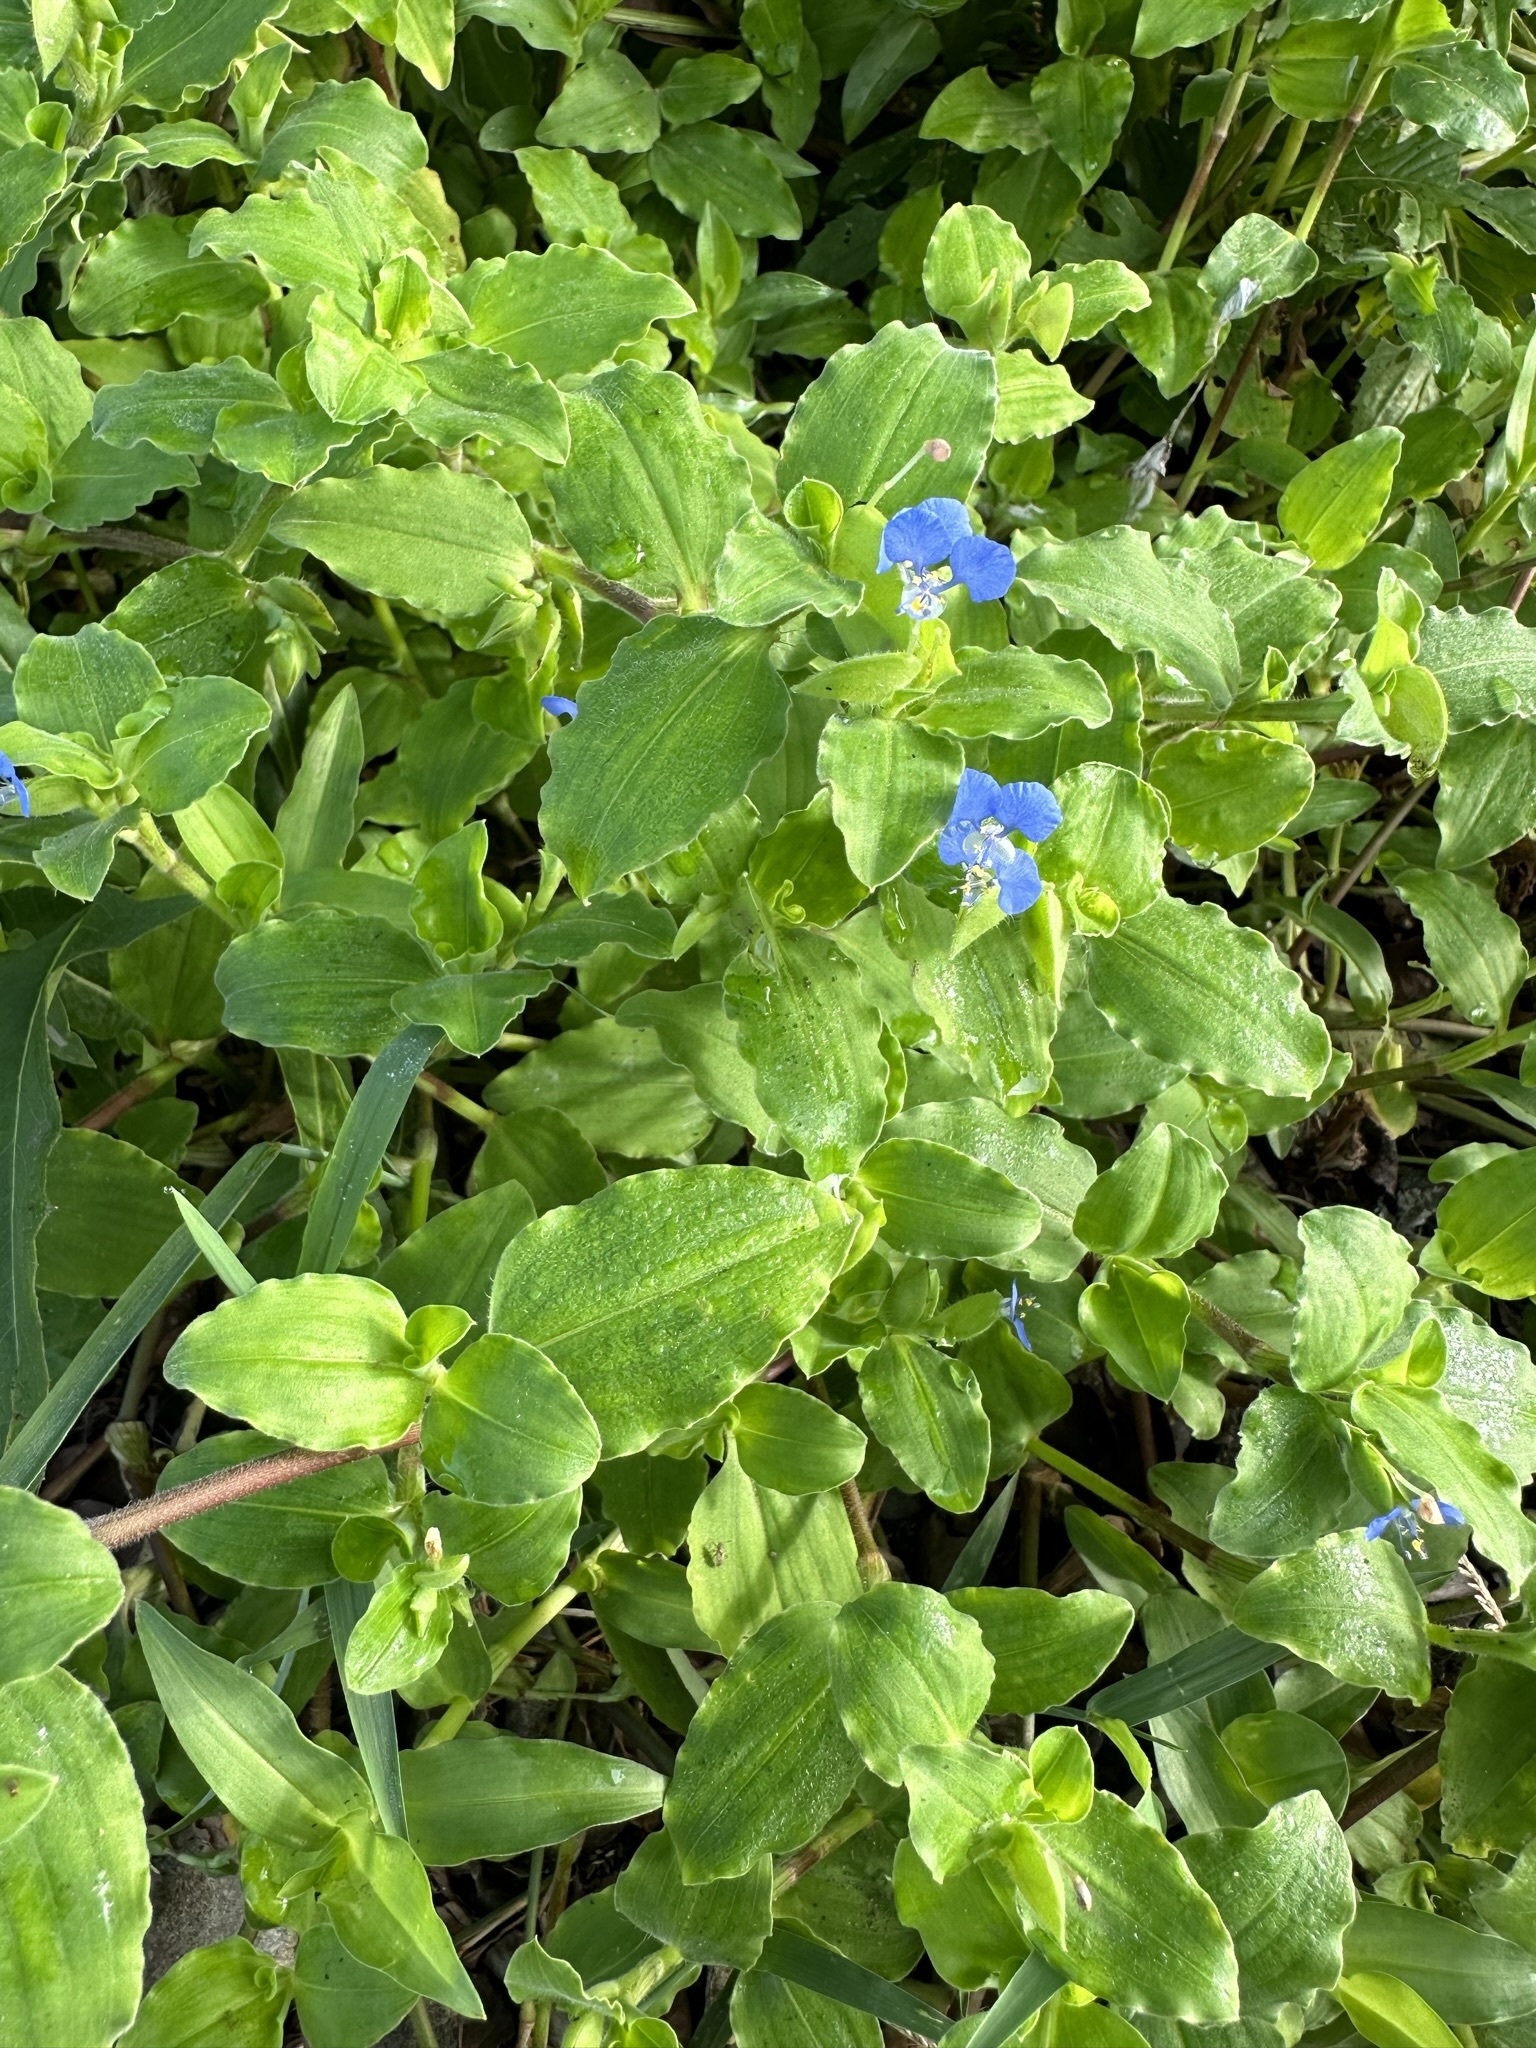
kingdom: Plantae
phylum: Tracheophyta
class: Liliopsida
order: Commelinales
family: Commelinaceae
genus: Commelina
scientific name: Commelina benghalensis
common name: Jio
